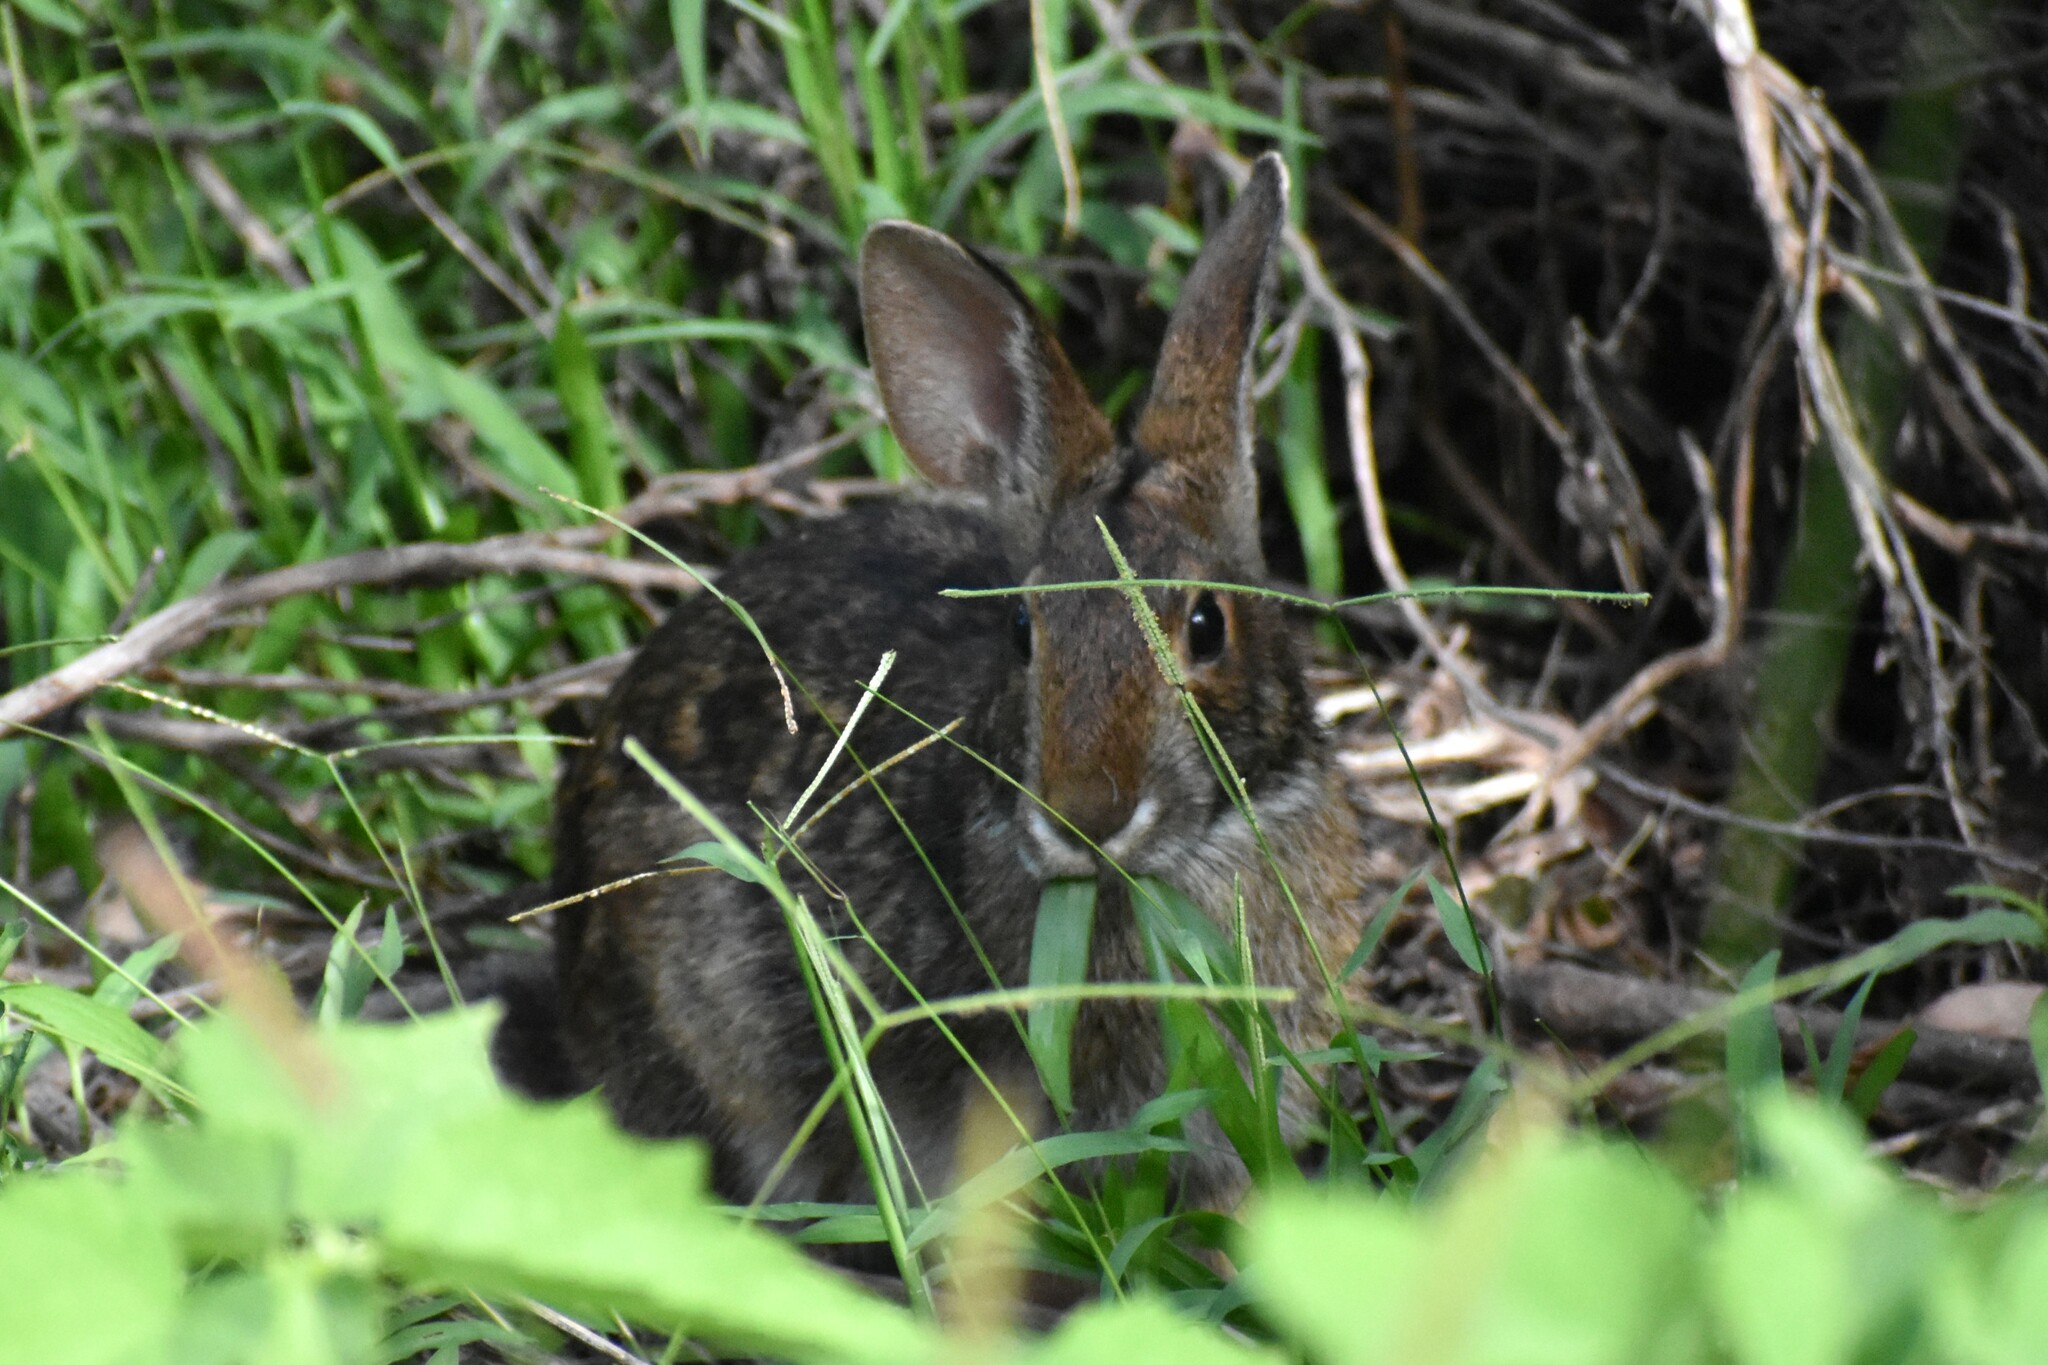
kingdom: Animalia
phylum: Chordata
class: Mammalia
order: Lagomorpha
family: Leporidae
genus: Sylvilagus
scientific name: Sylvilagus aquaticus
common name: Swamp rabbit
